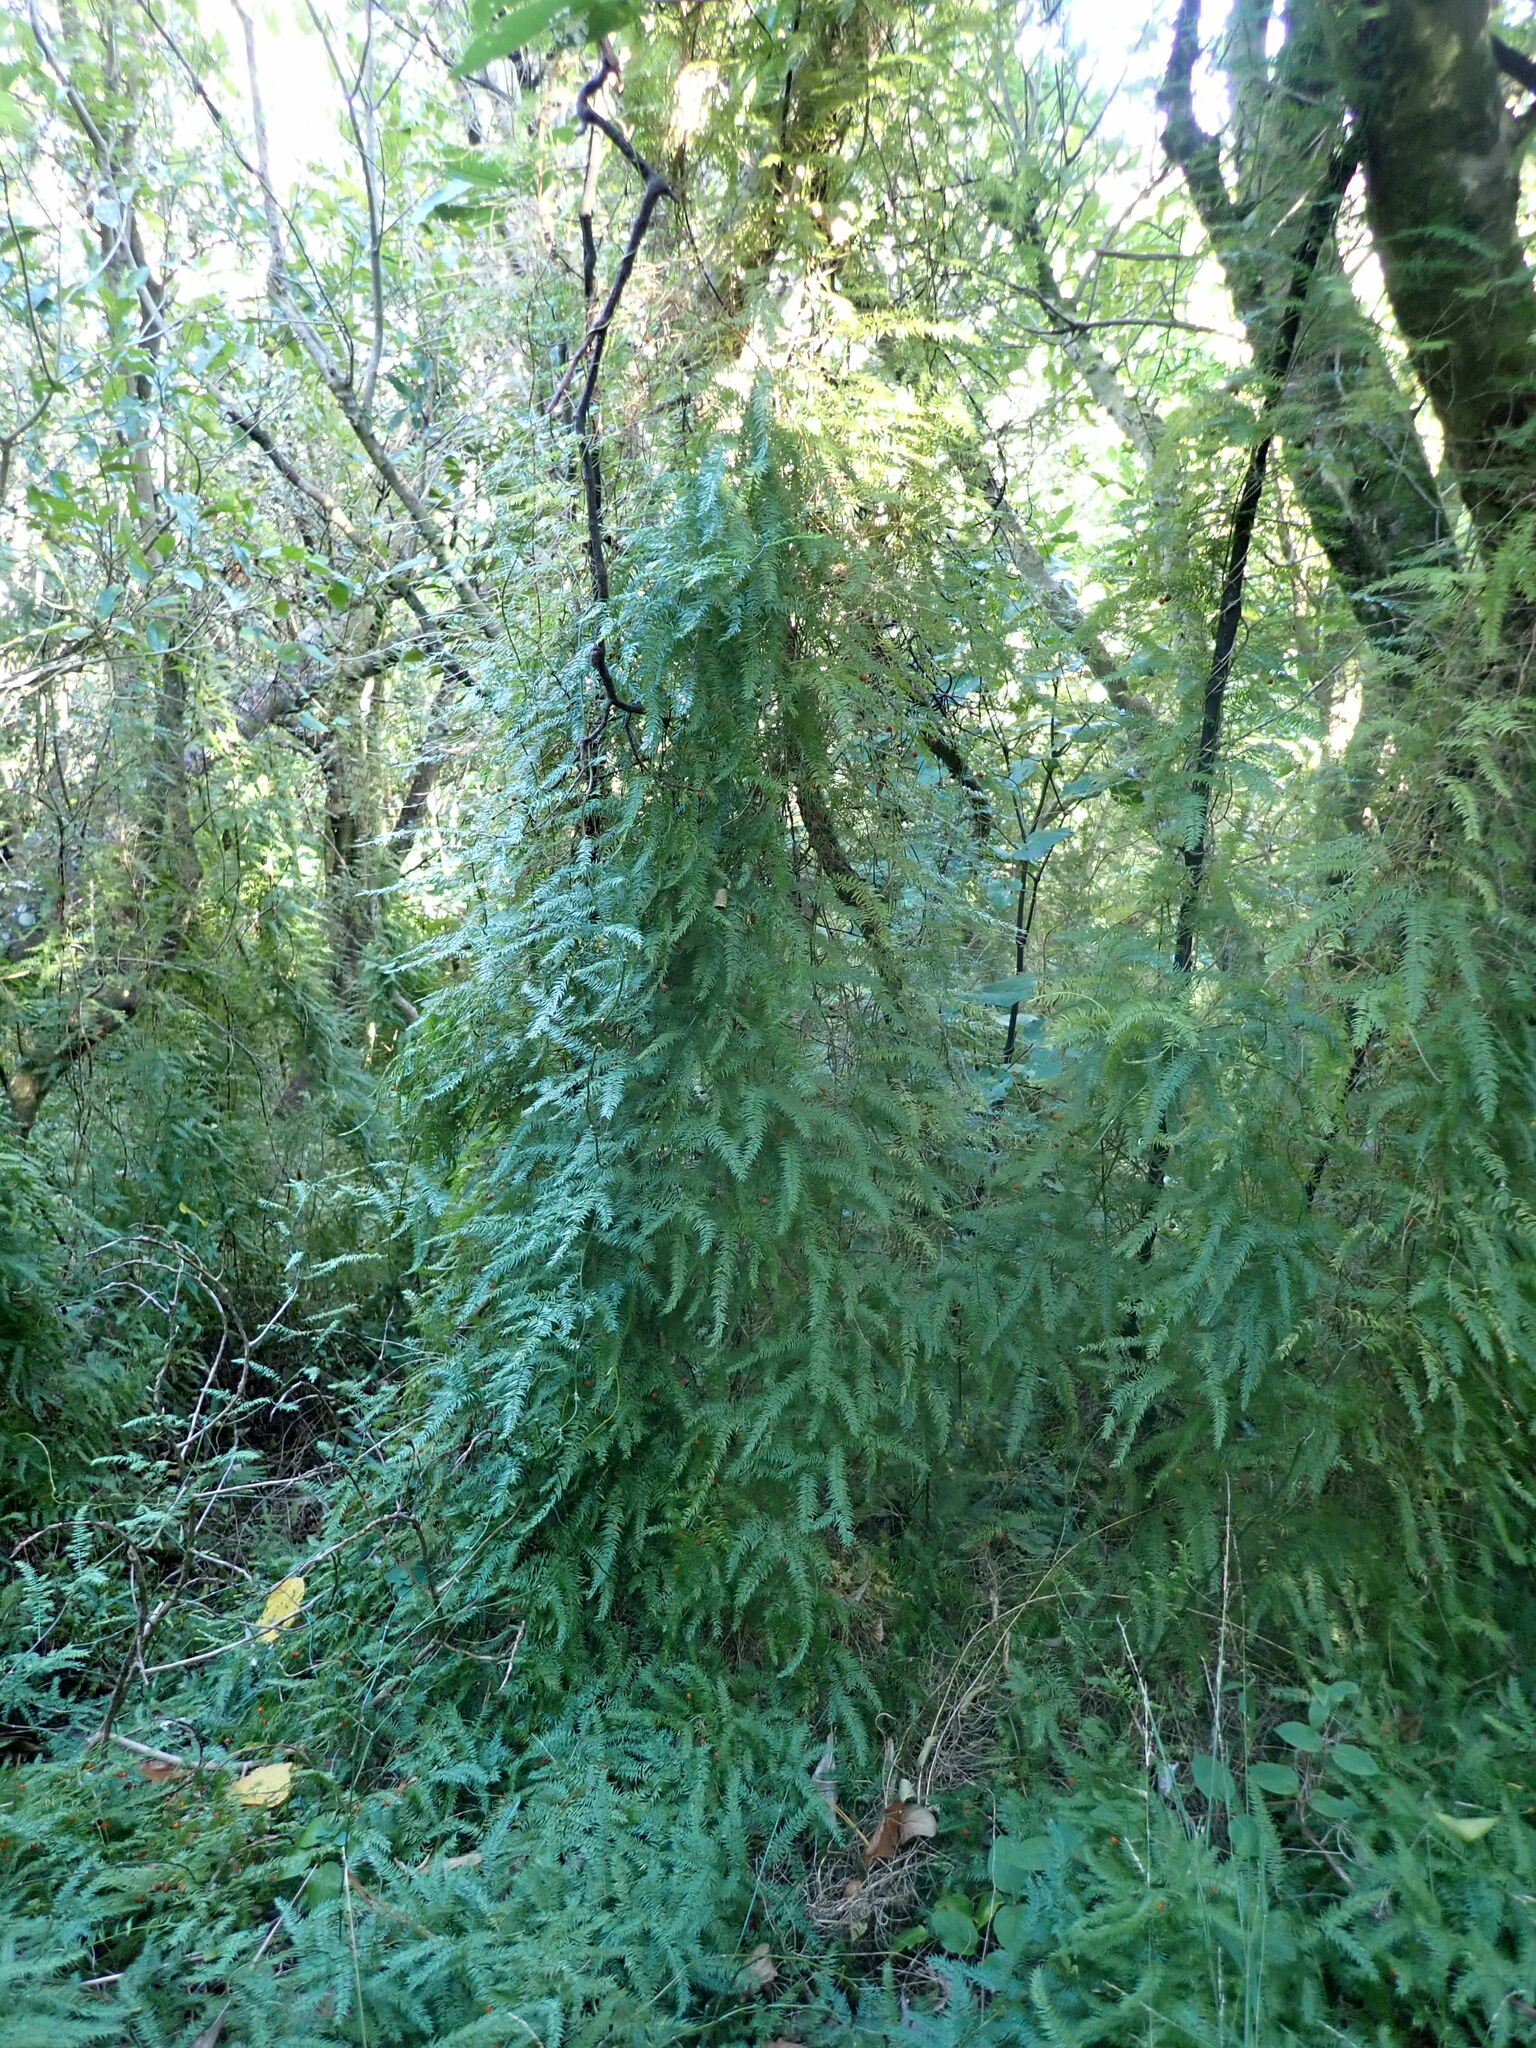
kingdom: Plantae
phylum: Tracheophyta
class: Liliopsida
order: Asparagales
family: Asparagaceae
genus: Asparagus
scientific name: Asparagus scandens
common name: Asparagus-fern
